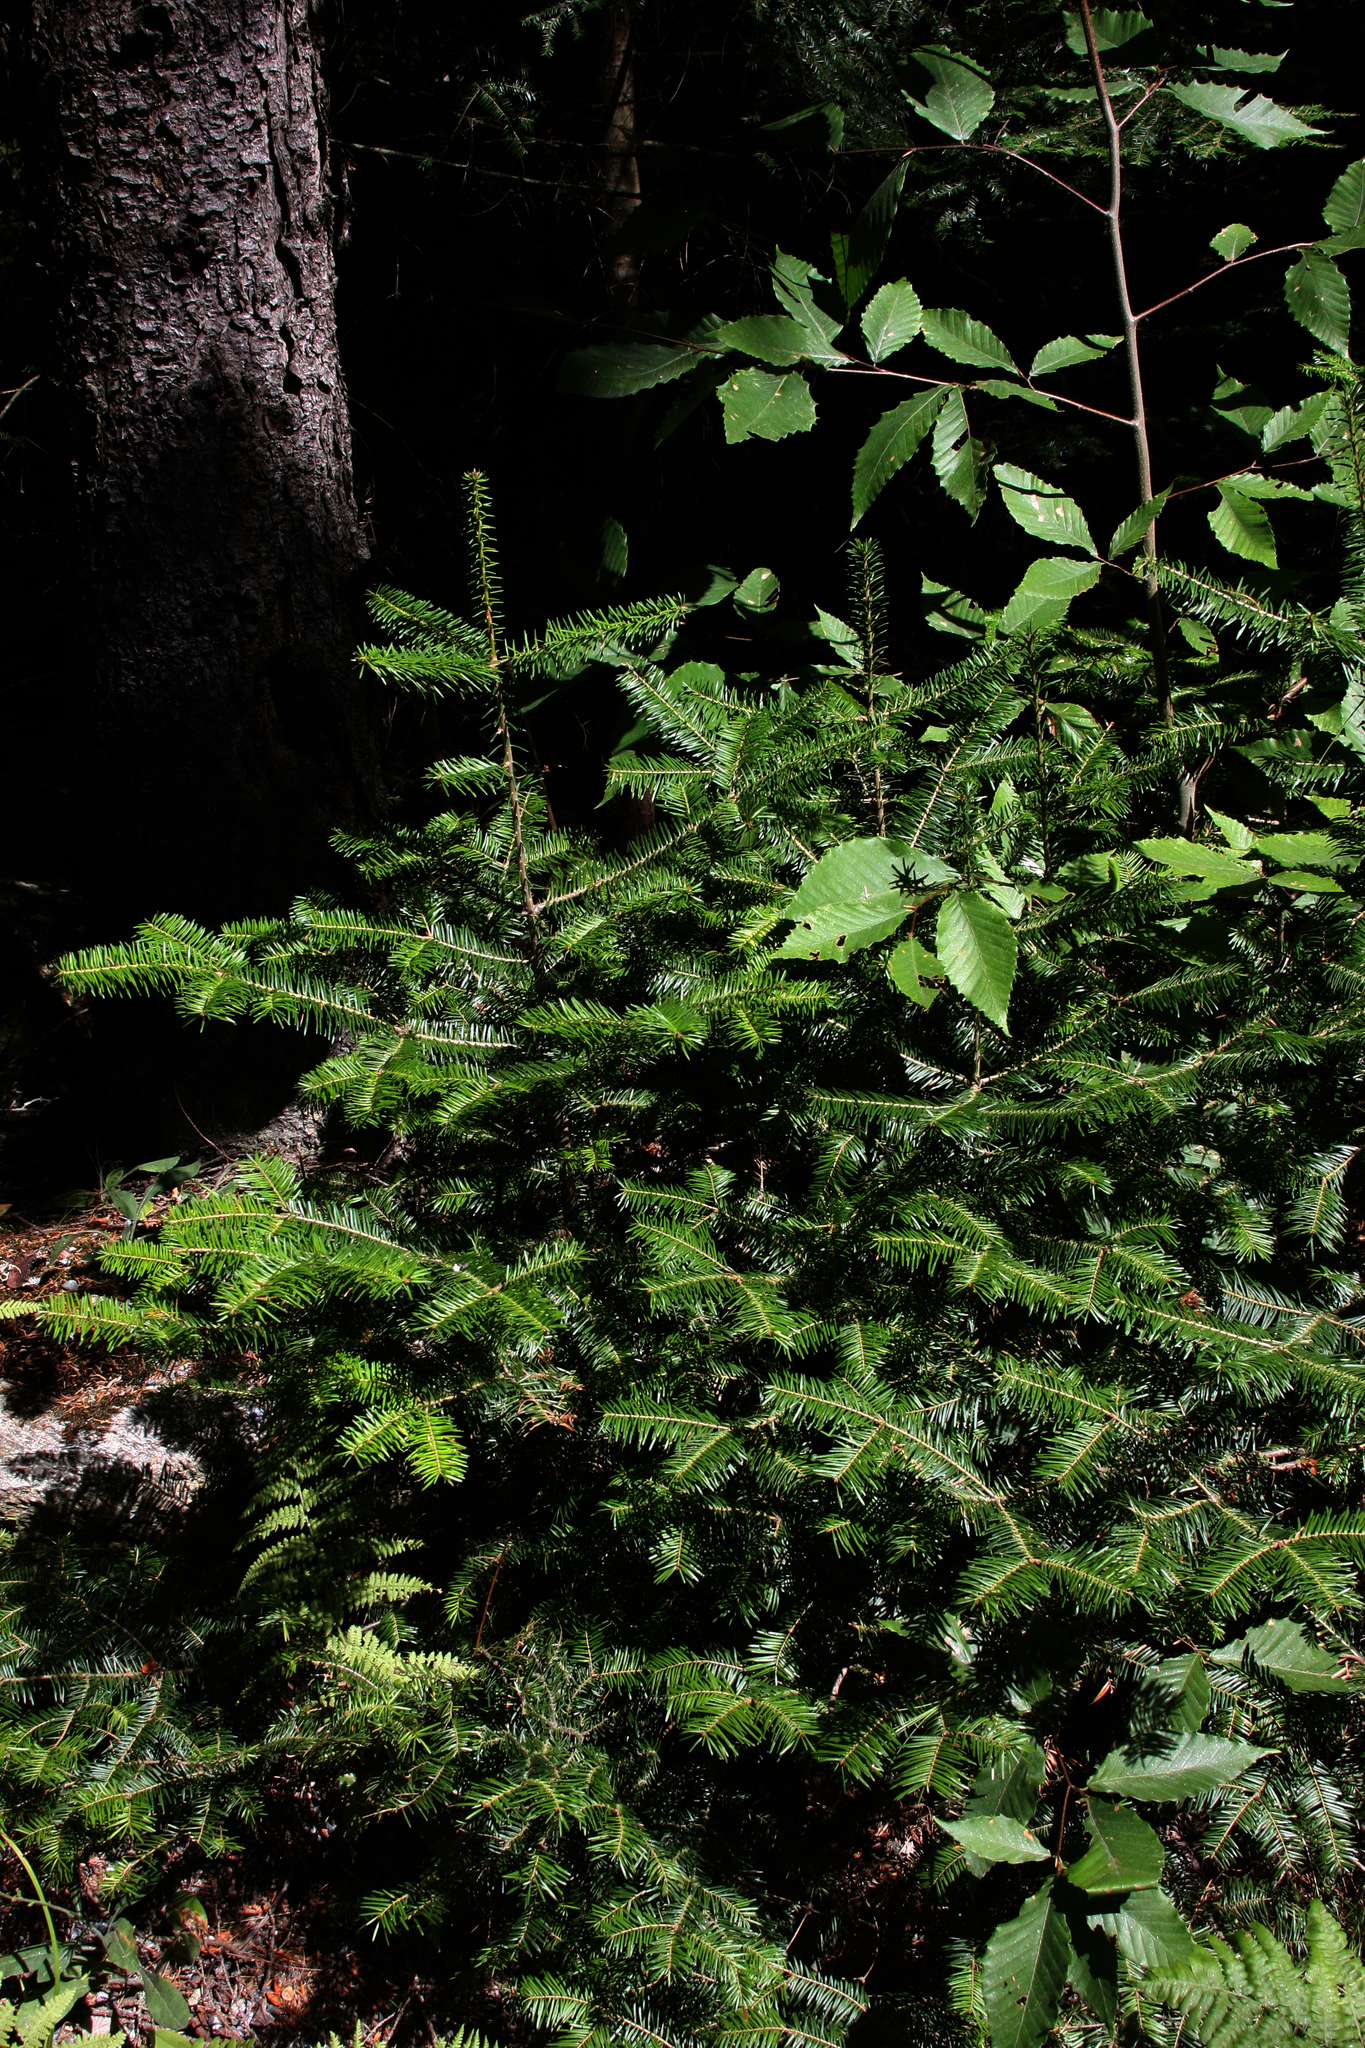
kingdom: Plantae
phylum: Tracheophyta
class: Magnoliopsida
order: Fagales
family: Fagaceae
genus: Fagus
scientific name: Fagus grandifolia
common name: American beech
